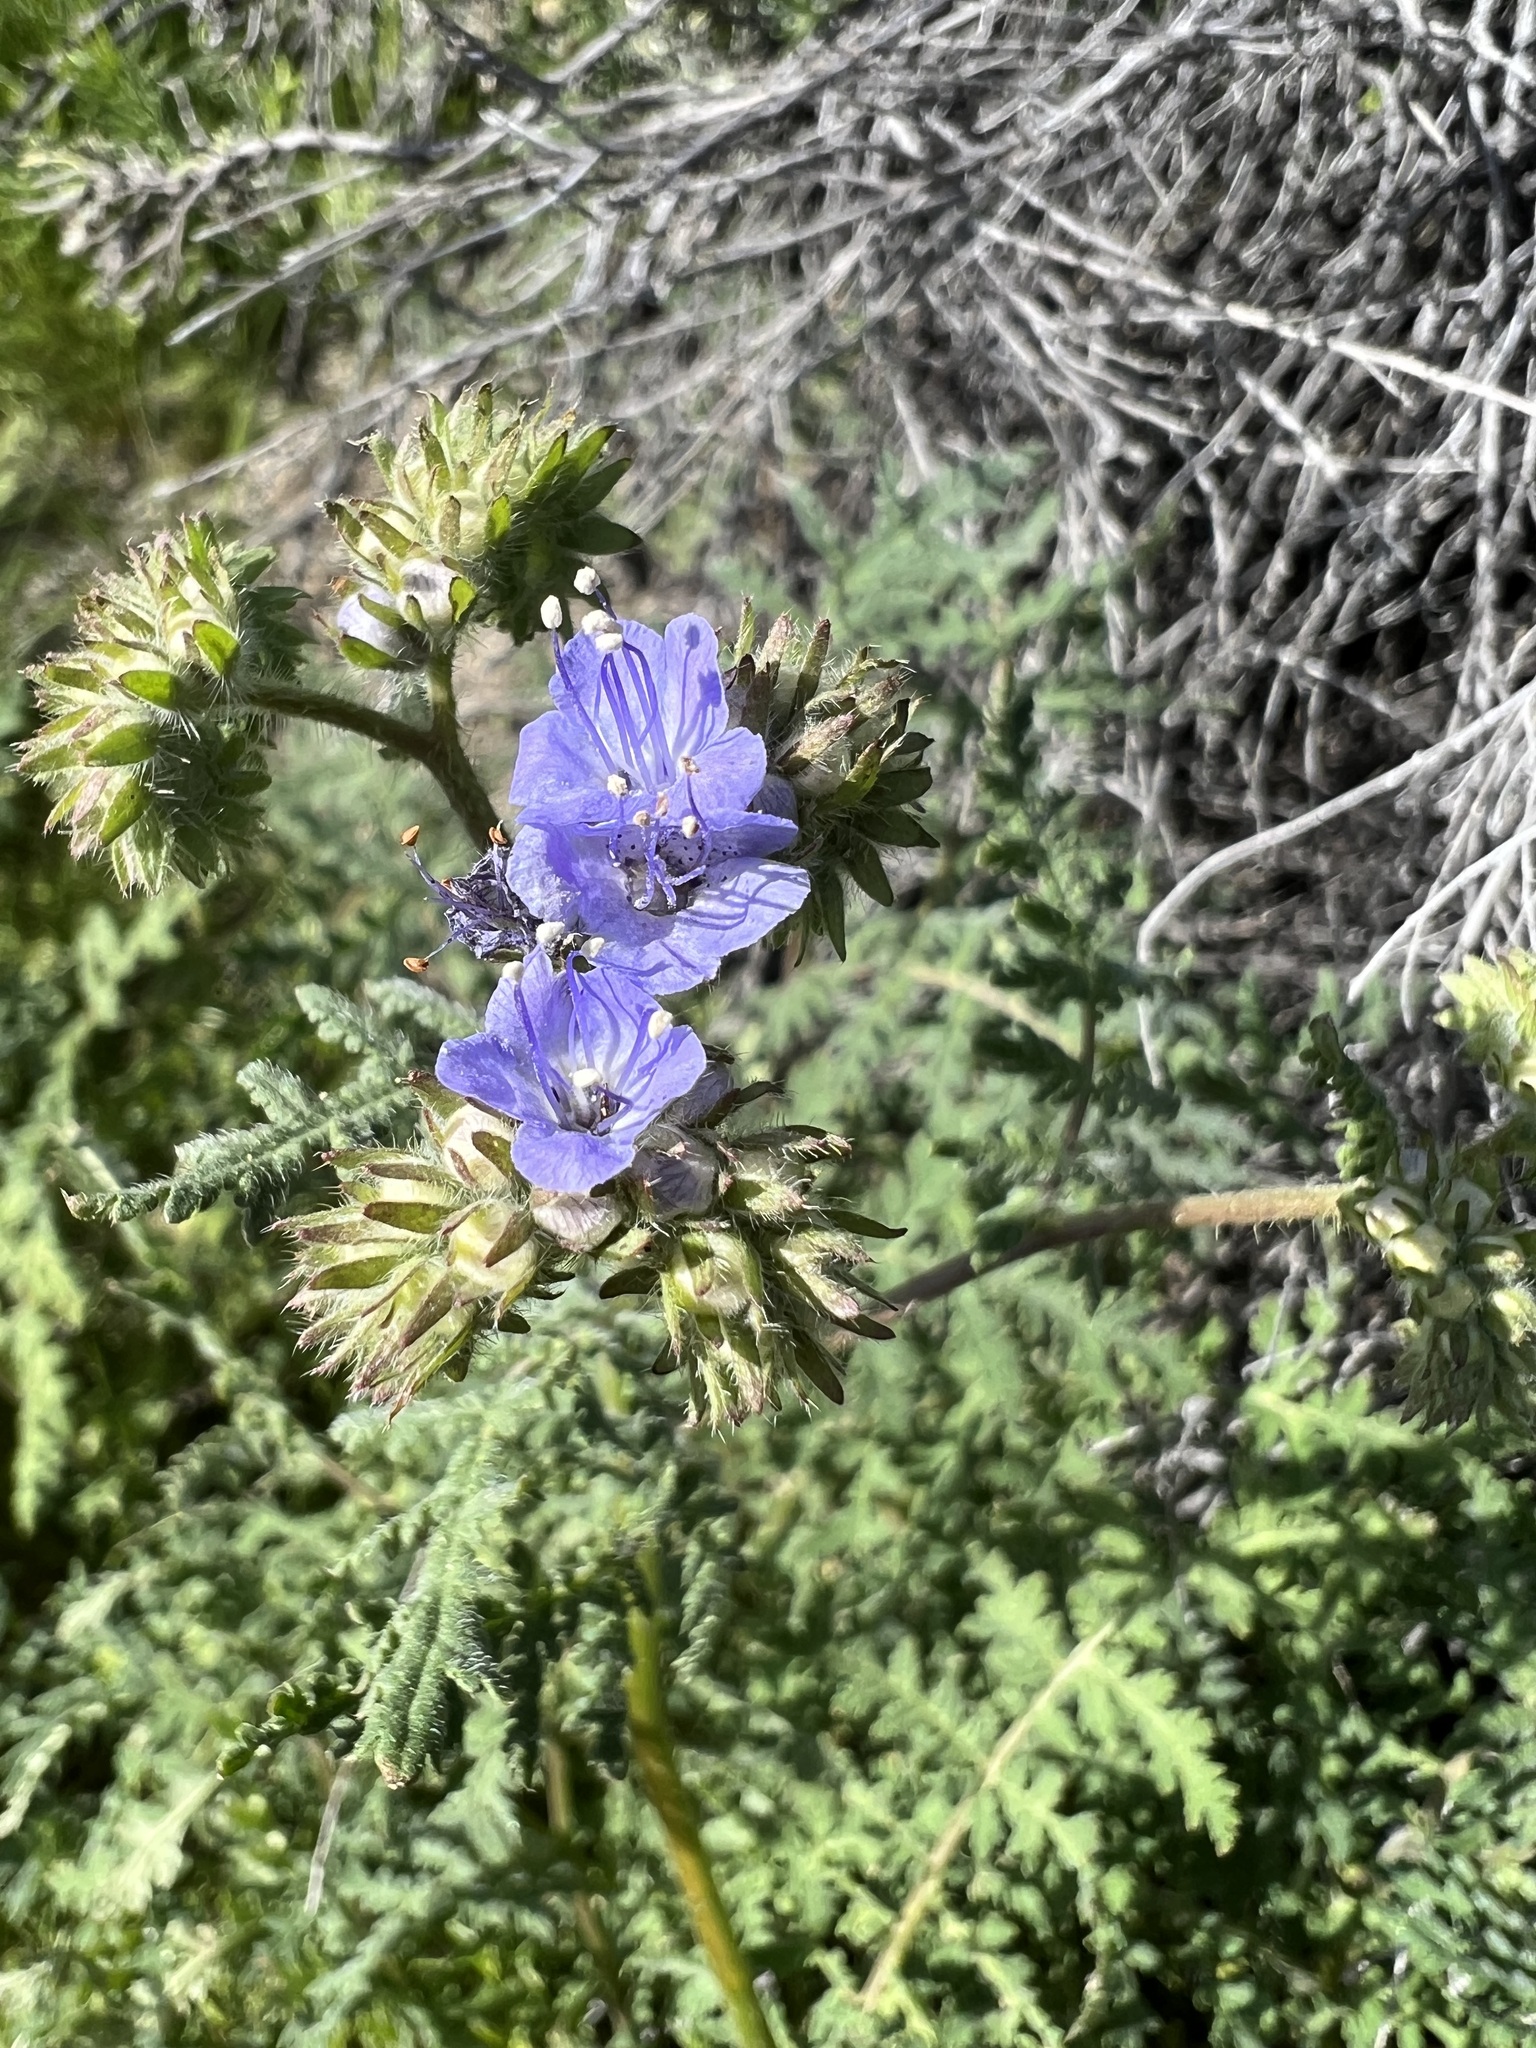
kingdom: Plantae
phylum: Tracheophyta
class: Magnoliopsida
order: Boraginales
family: Hydrophyllaceae
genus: Phacelia
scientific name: Phacelia distans
